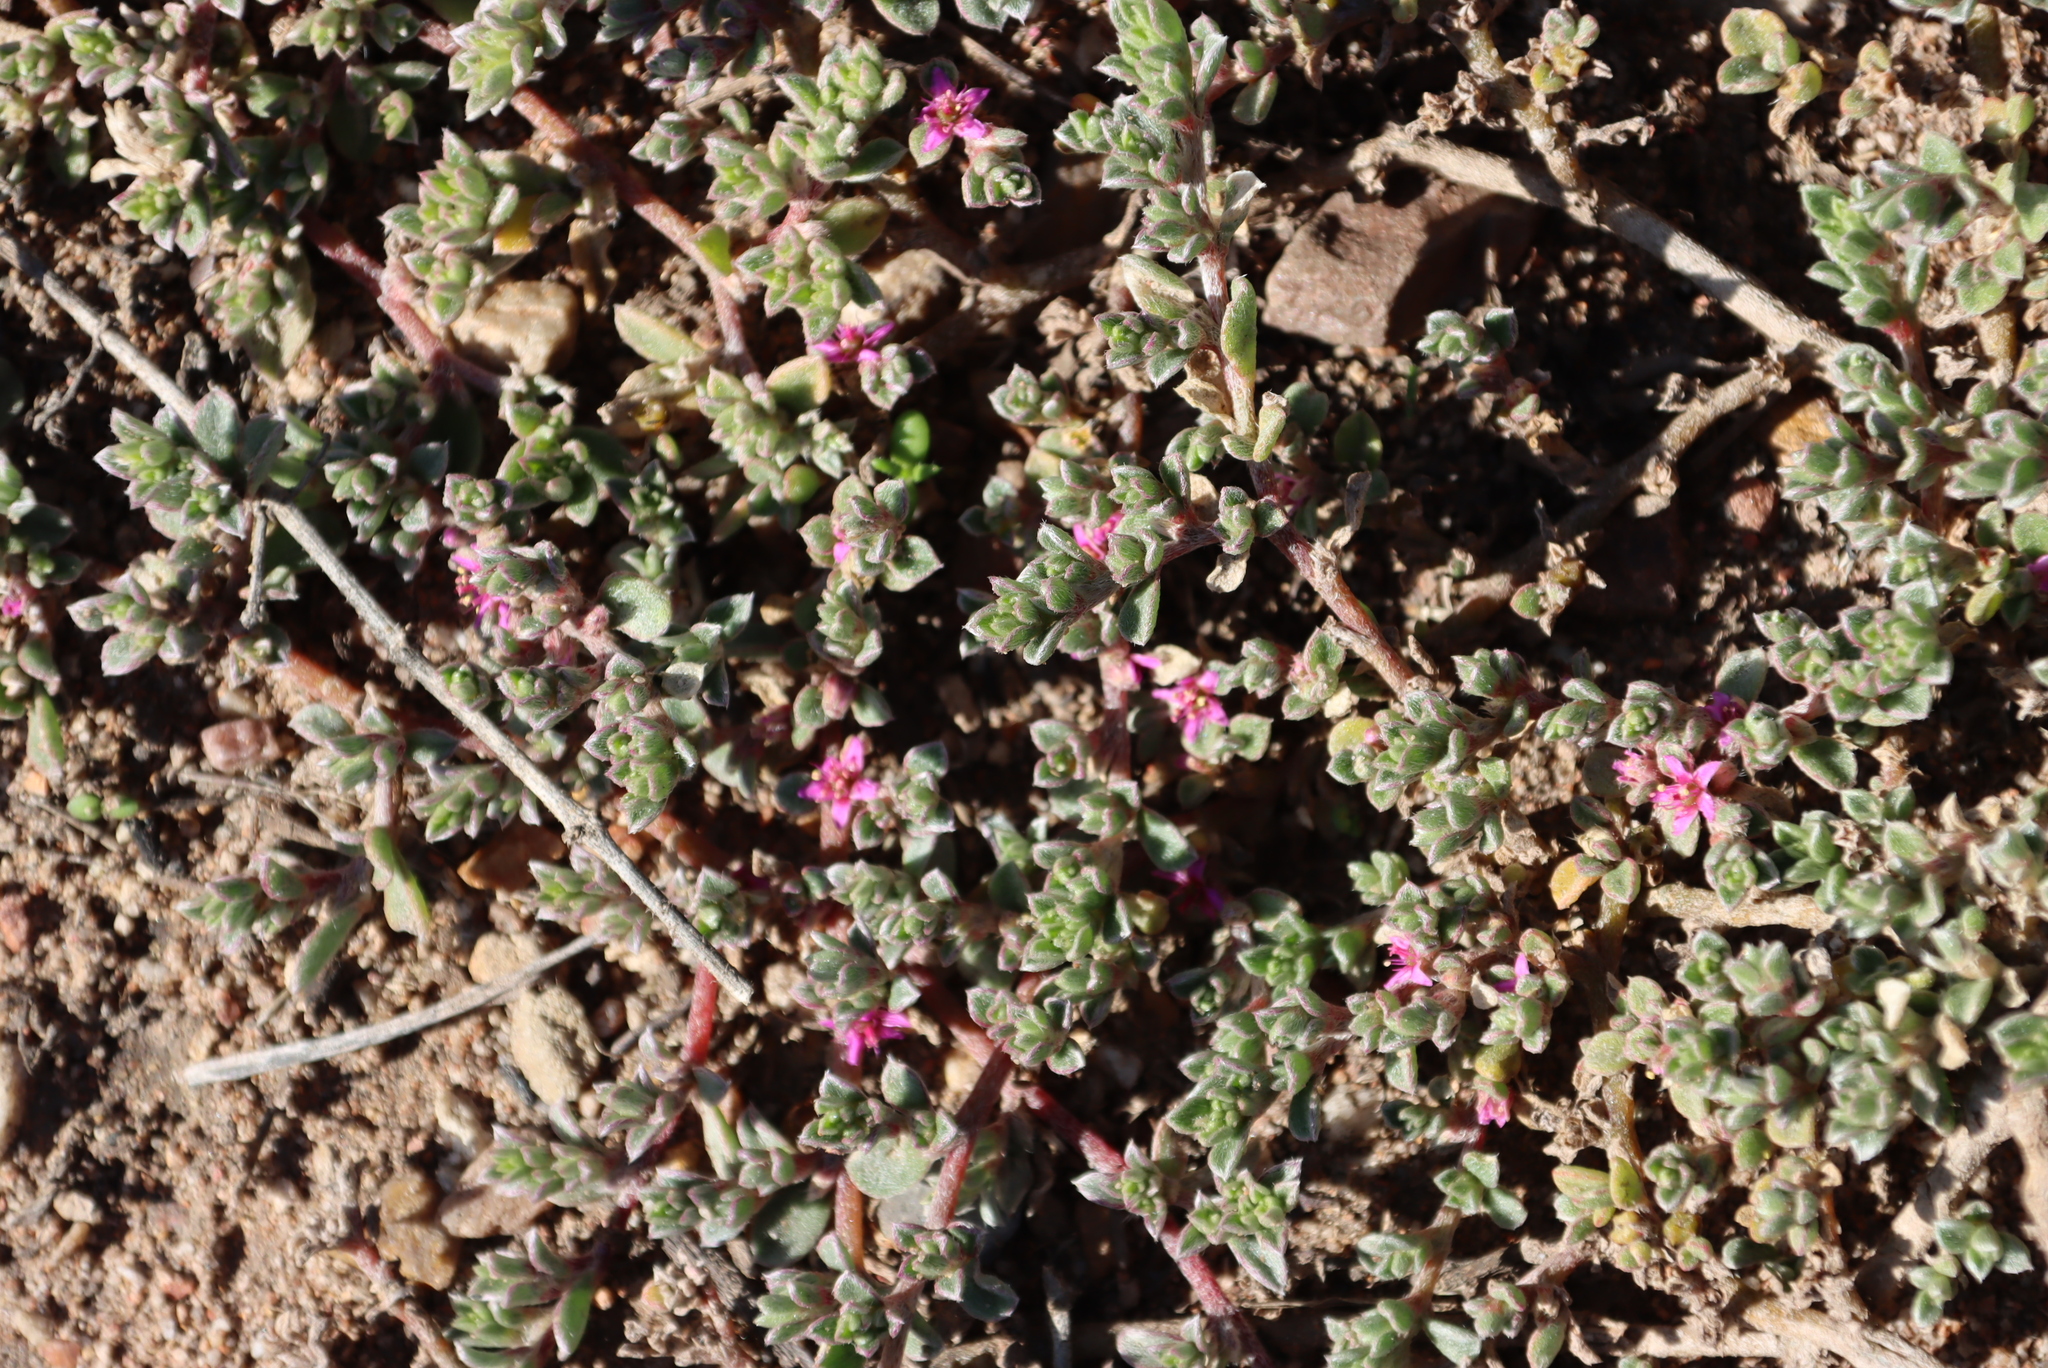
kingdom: Plantae
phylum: Tracheophyta
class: Magnoliopsida
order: Caryophyllales
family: Aizoaceae
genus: Aizoon
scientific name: Aizoon pubescens
